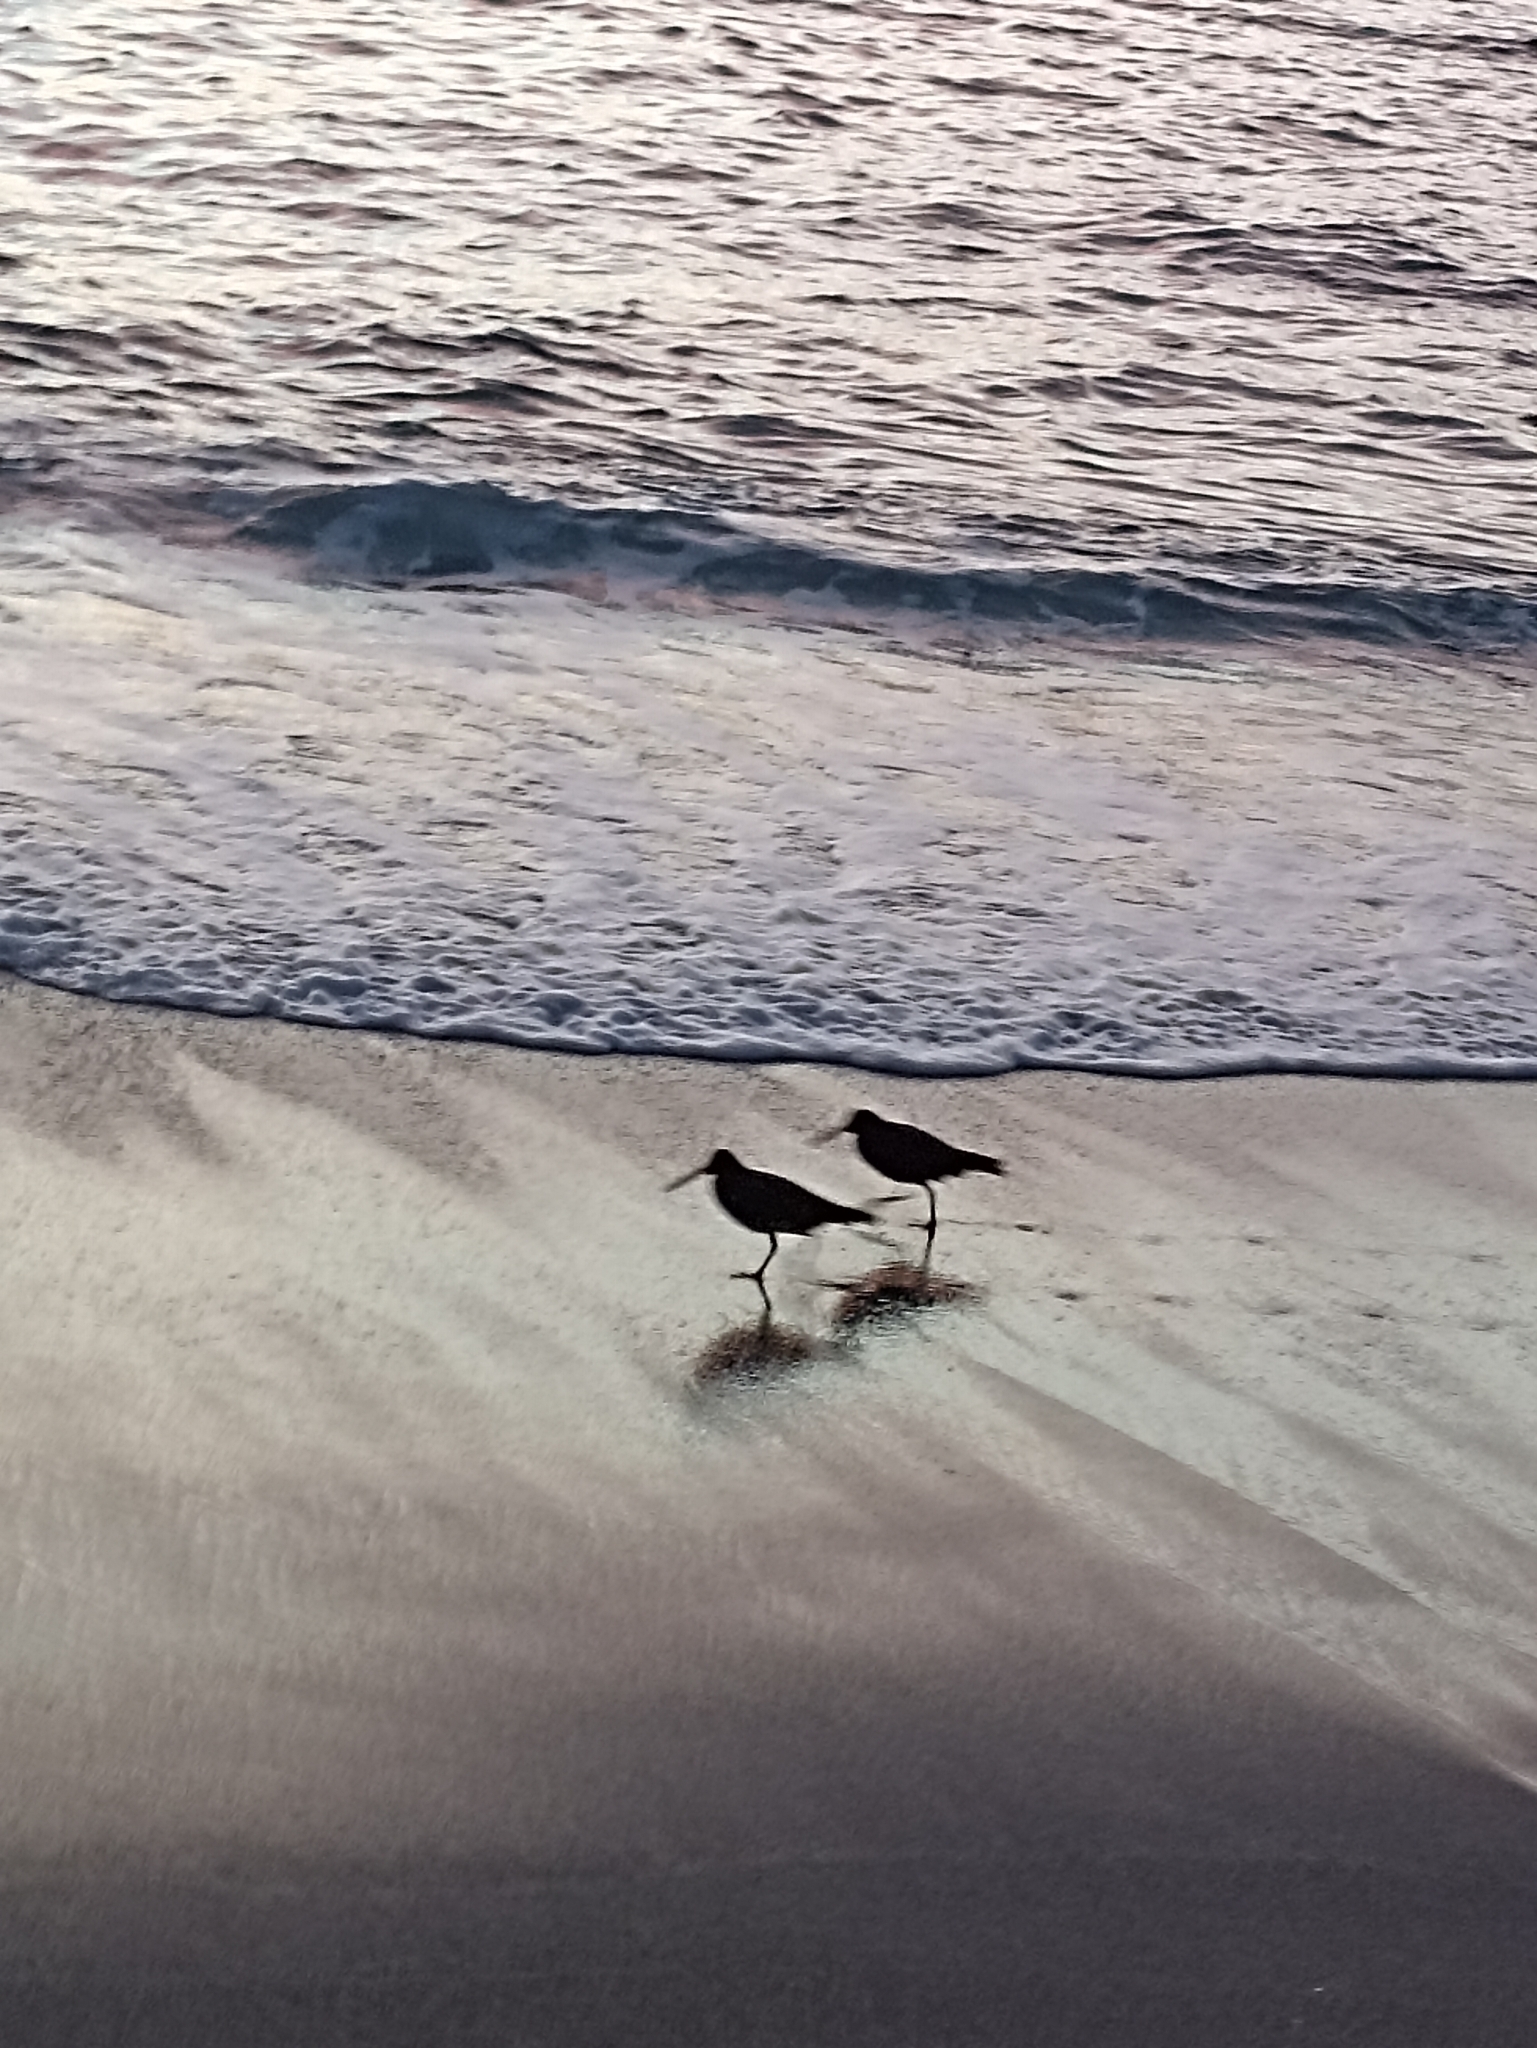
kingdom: Animalia
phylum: Chordata
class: Aves
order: Charadriiformes
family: Haematopodidae
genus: Haematopus
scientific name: Haematopus unicolor
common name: Variable oystercatcher
